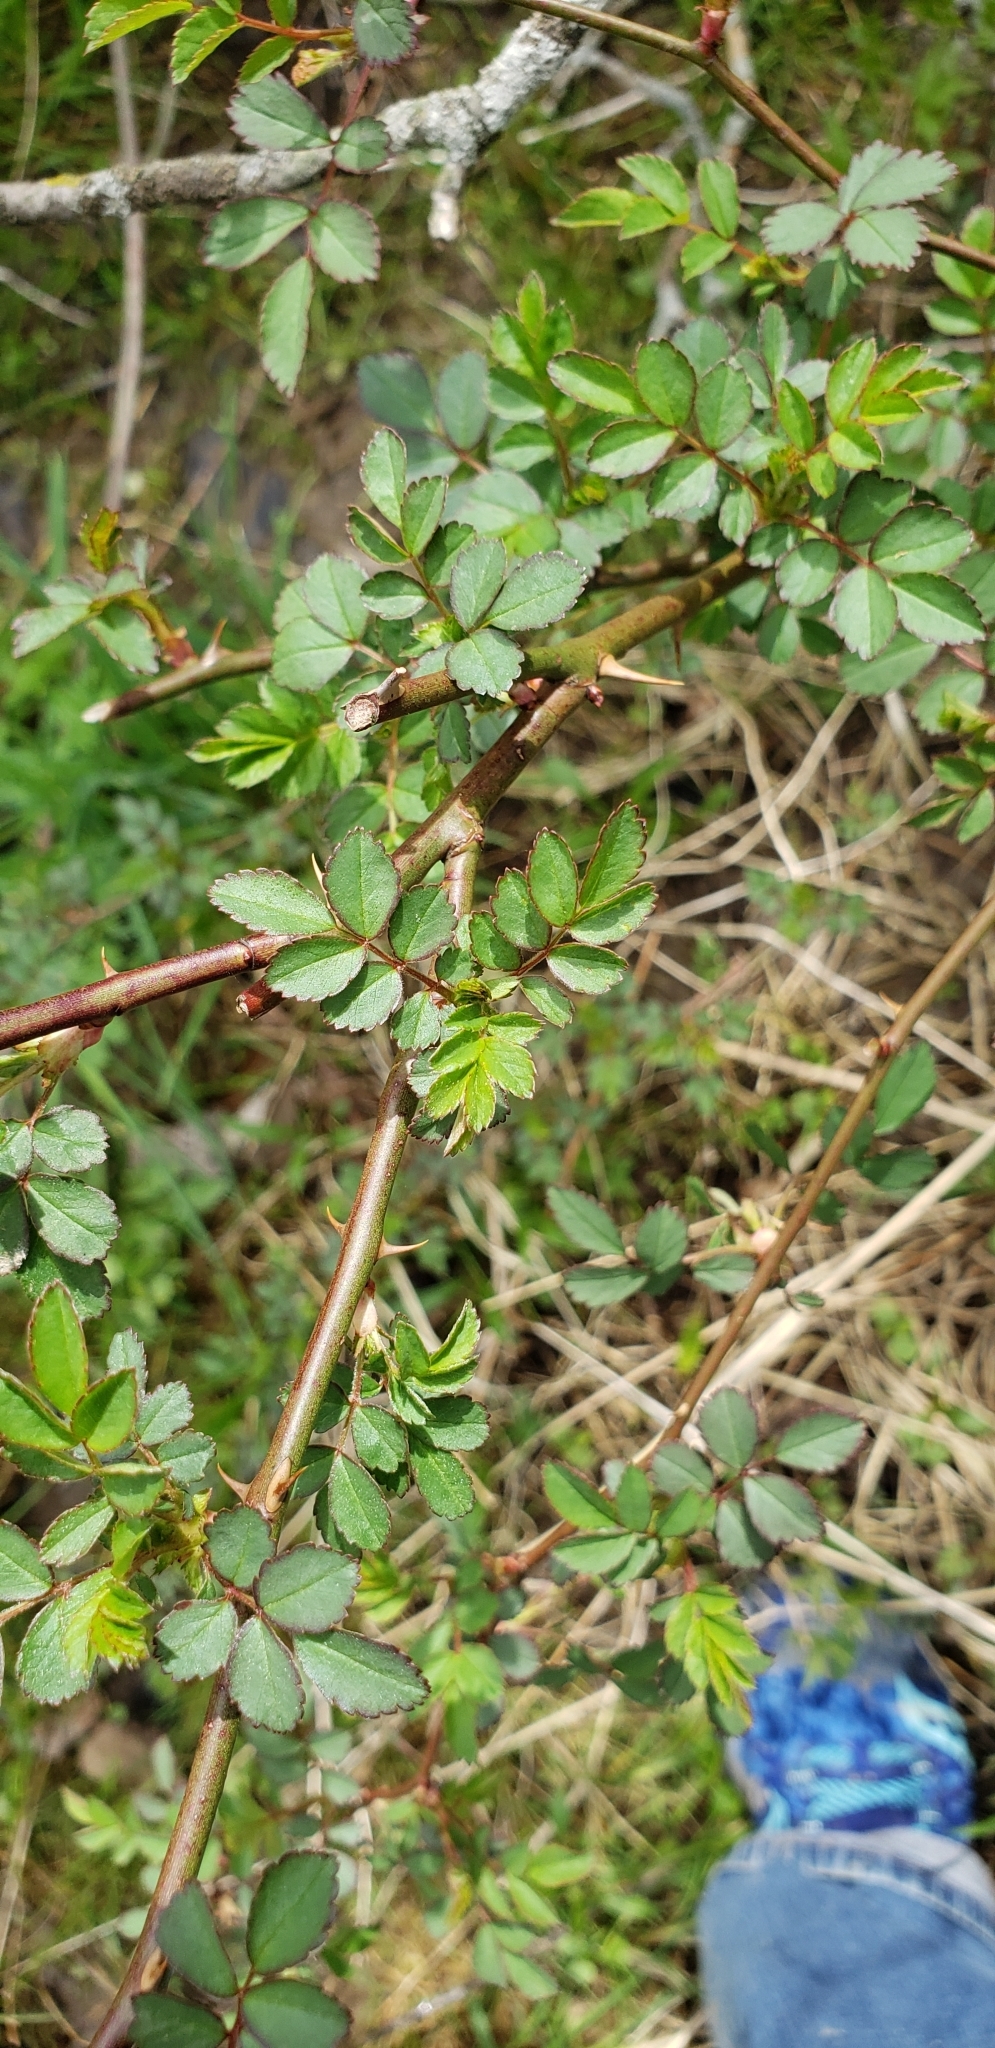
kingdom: Plantae
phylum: Tracheophyta
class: Magnoliopsida
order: Rosales
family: Rosaceae
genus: Rosa
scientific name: Rosa multiflora
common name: Multiflora rose
